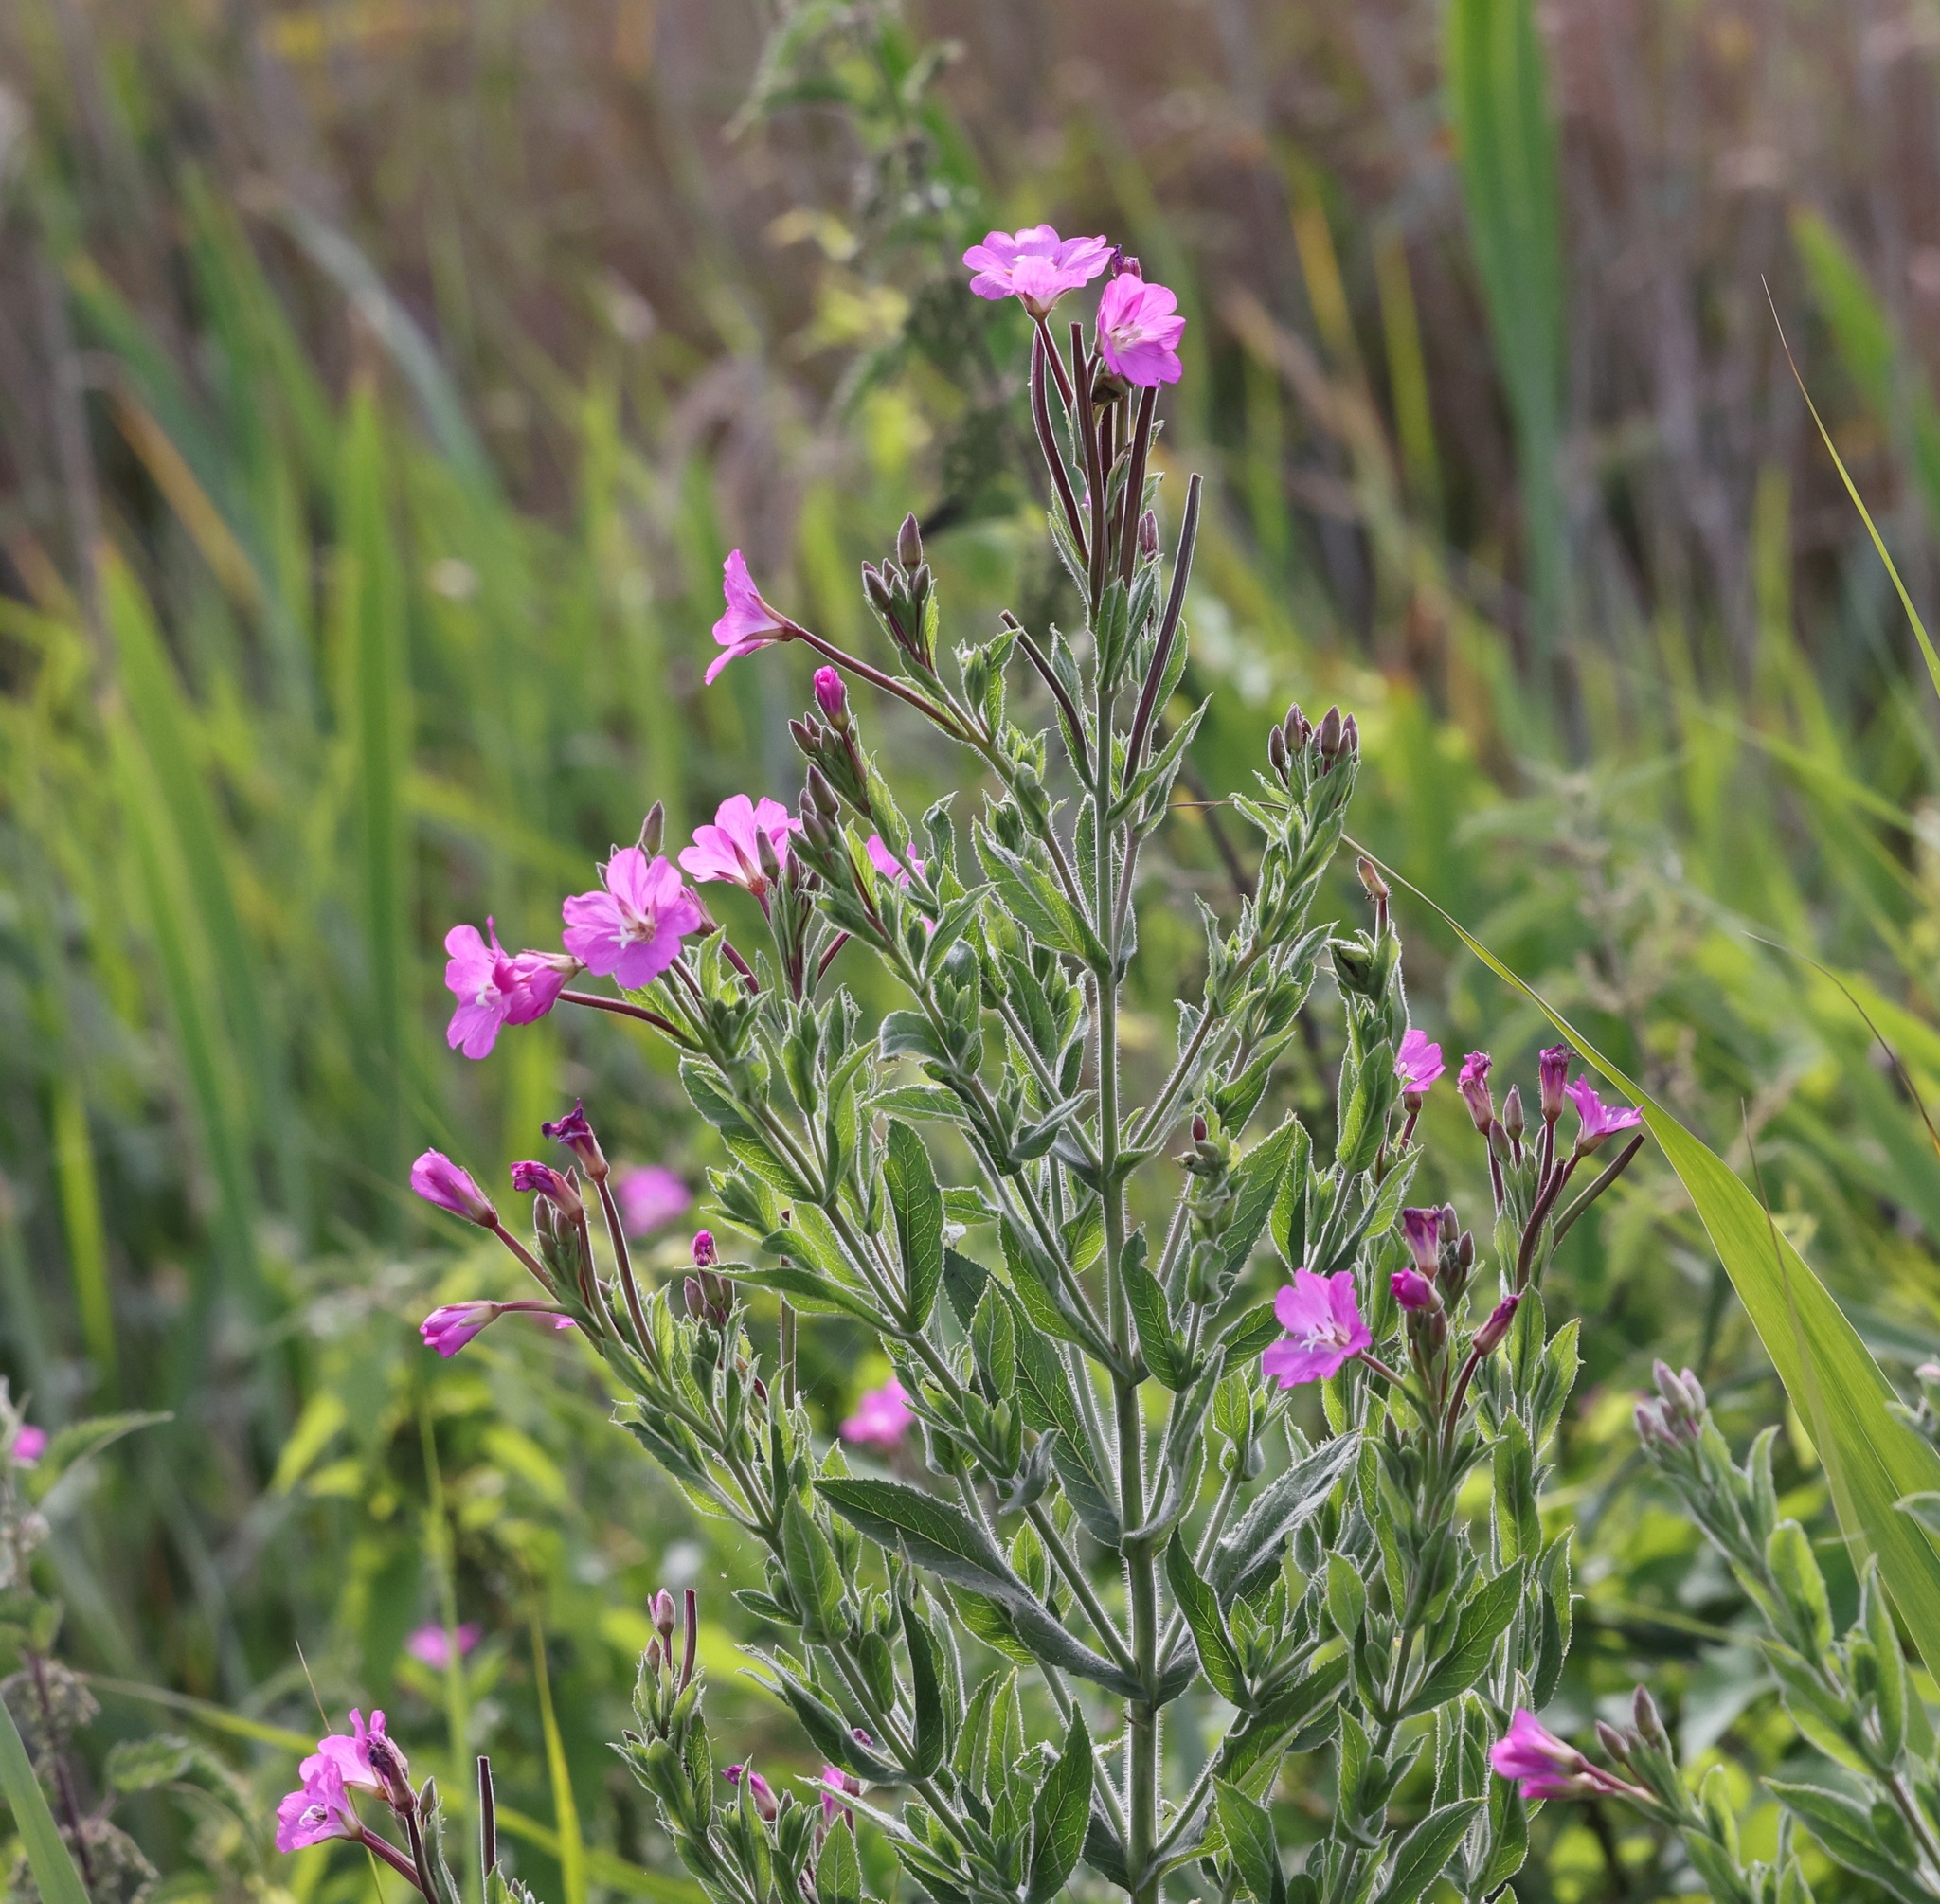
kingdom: Plantae
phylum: Tracheophyta
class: Magnoliopsida
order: Myrtales
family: Onagraceae
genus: Epilobium
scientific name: Epilobium hirsutum
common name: Great willowherb
